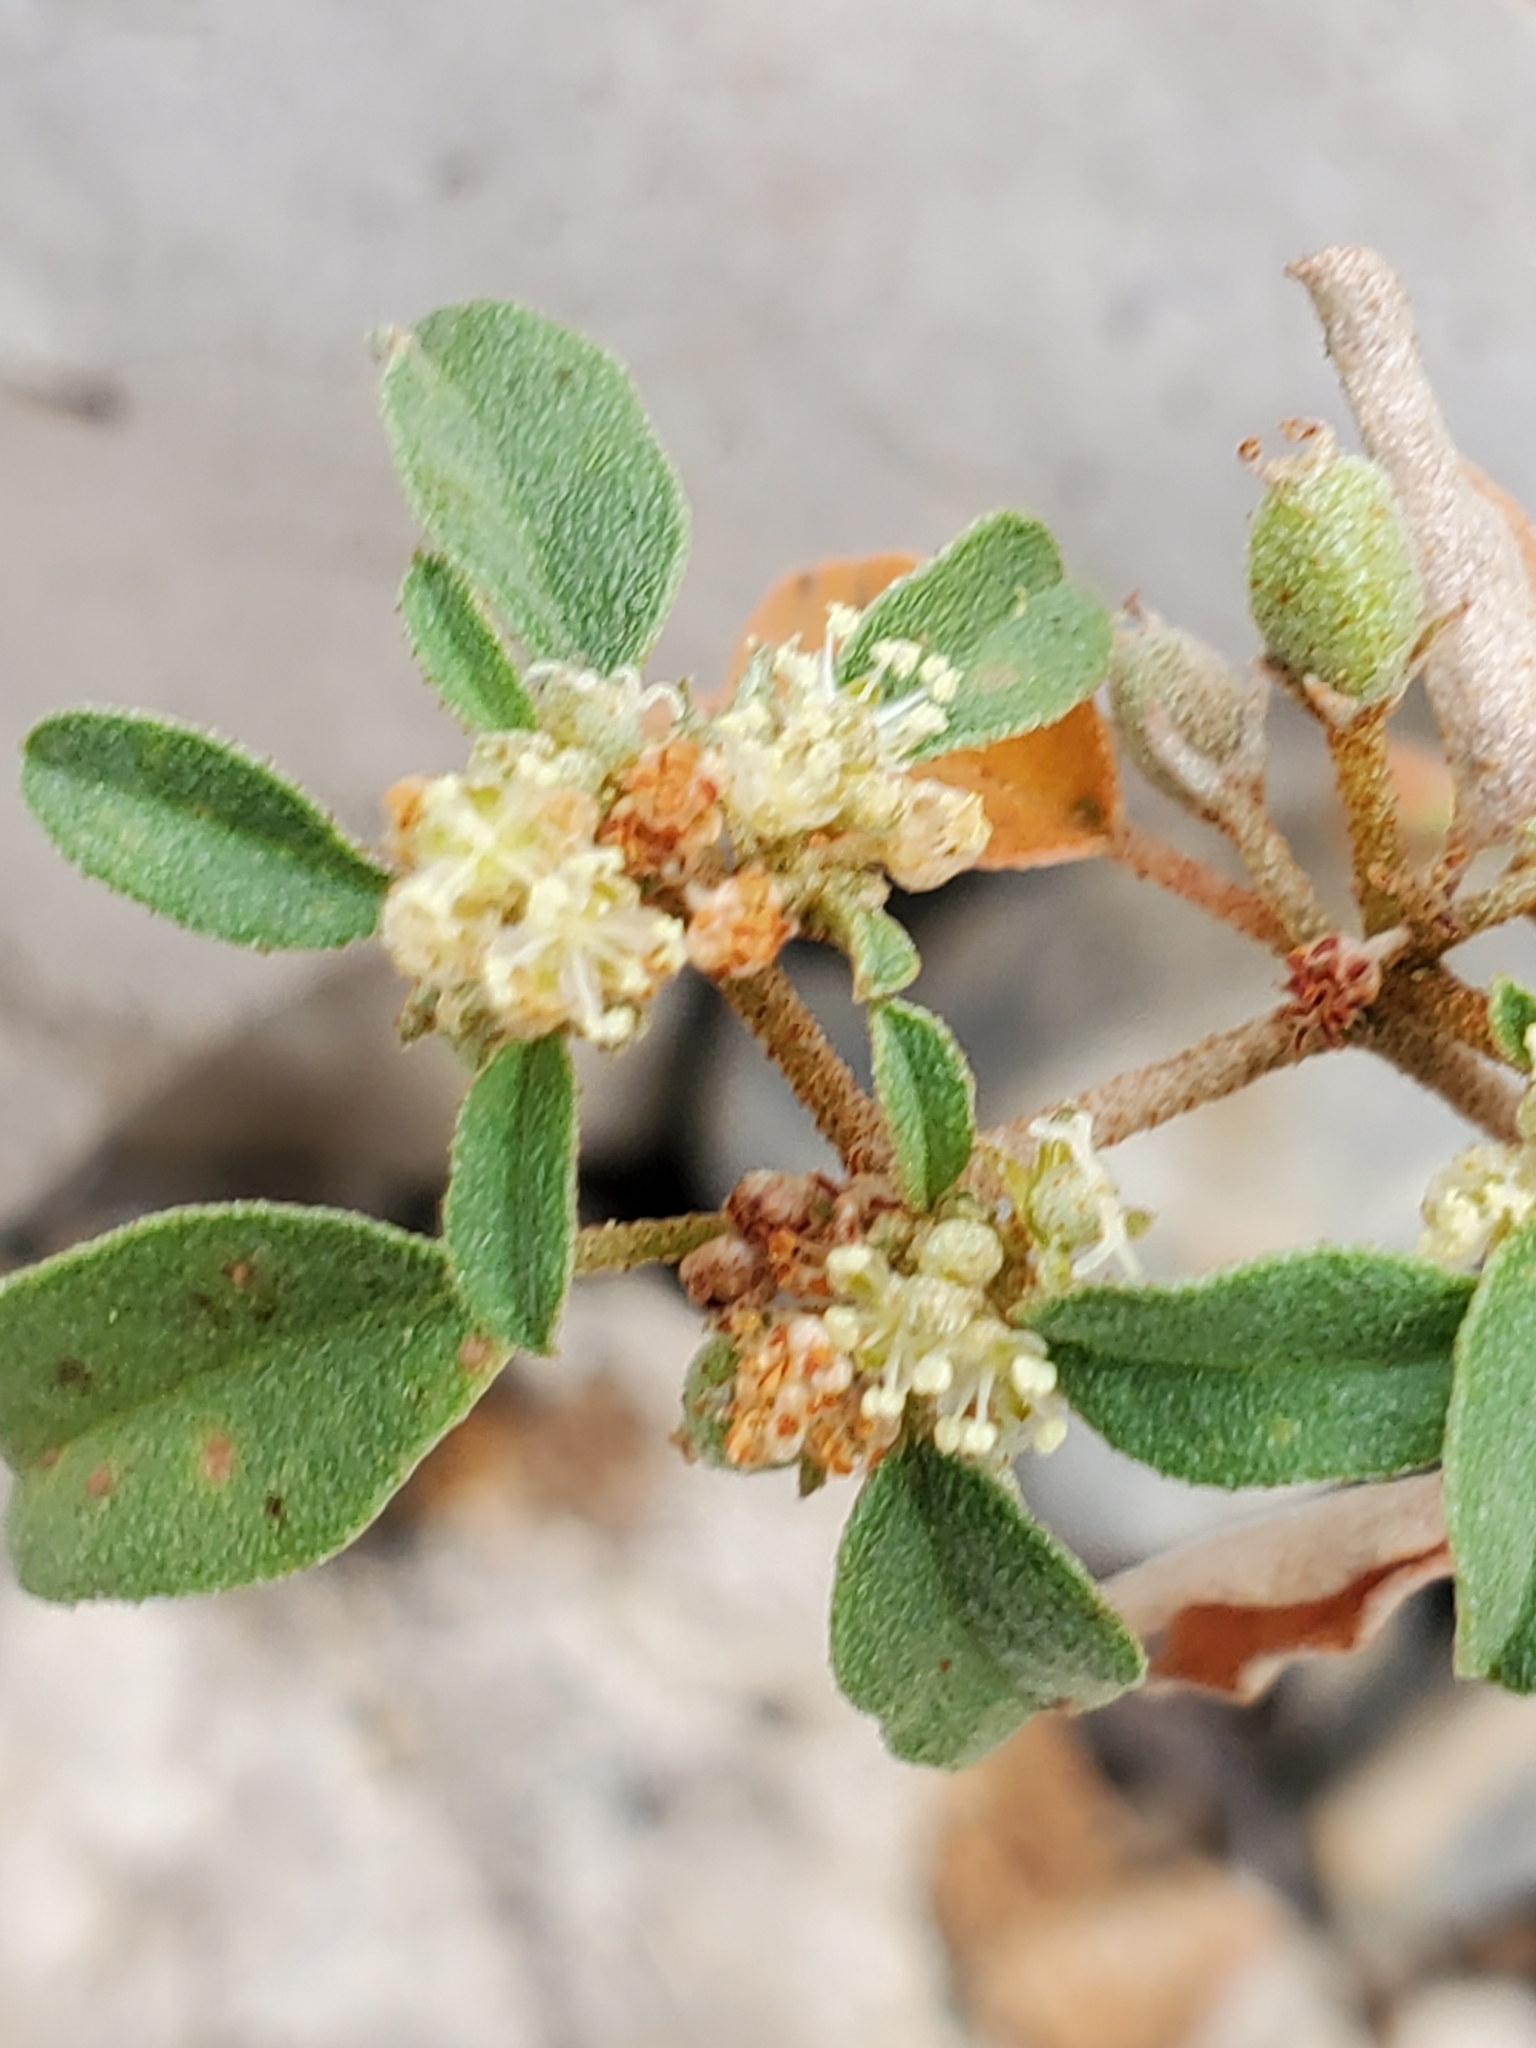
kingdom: Plantae
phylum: Tracheophyta
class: Magnoliopsida
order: Malpighiales
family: Euphorbiaceae
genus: Croton
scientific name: Croton monanthogynus
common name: One-seed croton
